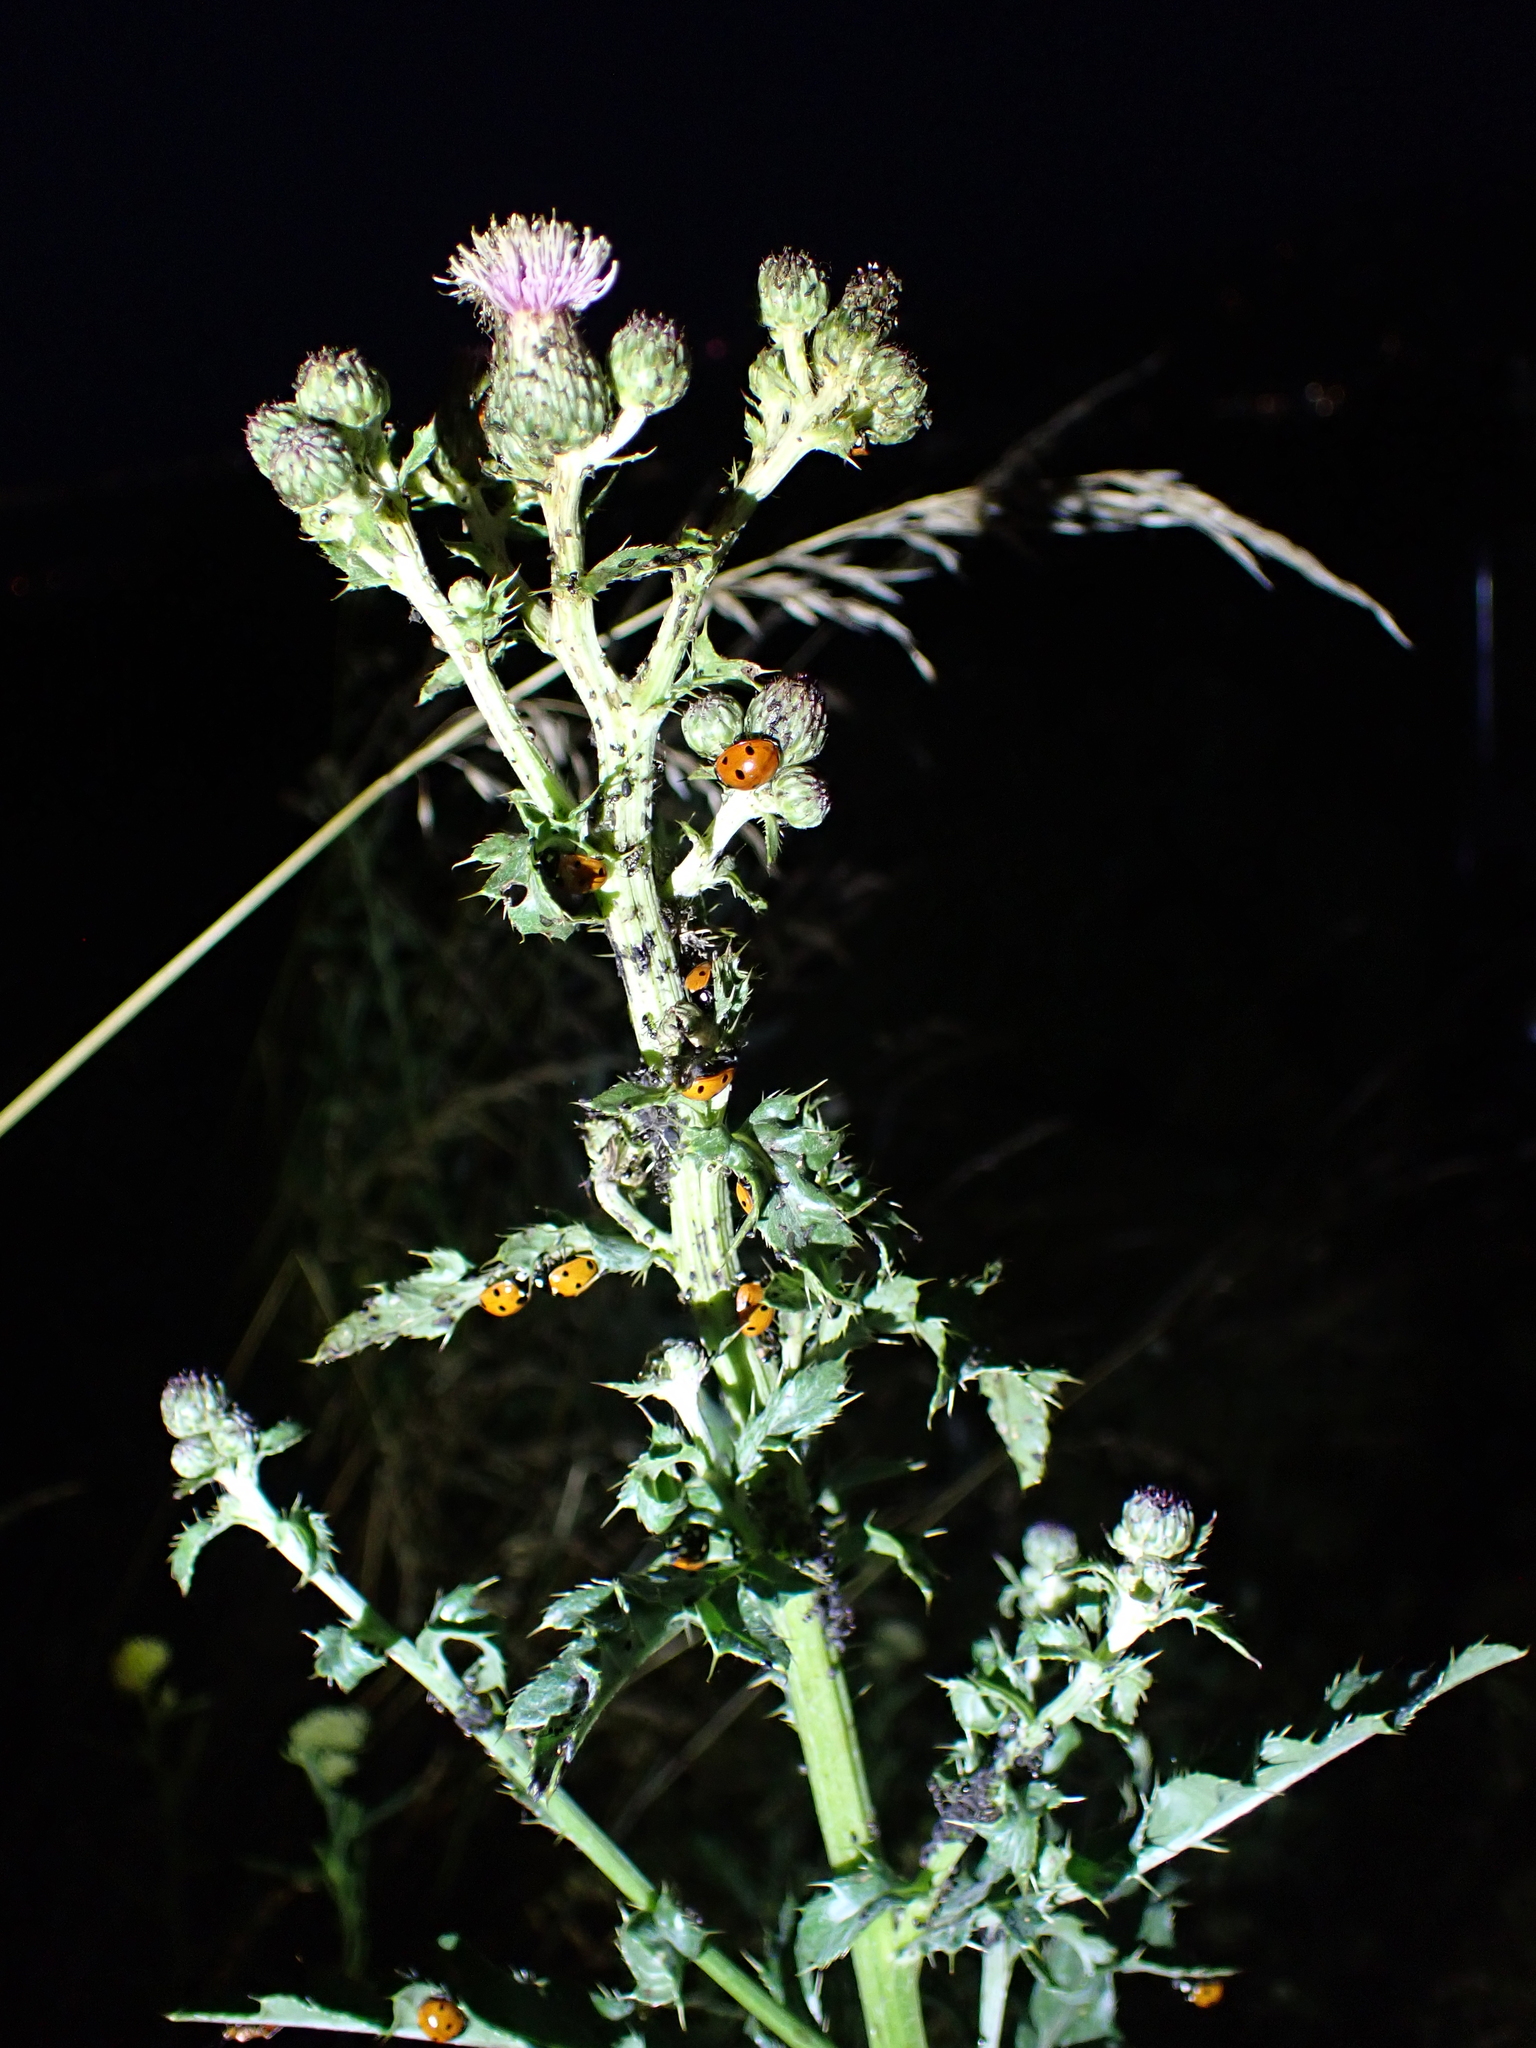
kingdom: Animalia
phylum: Arthropoda
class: Insecta
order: Coleoptera
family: Coccinellidae
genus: Coccinella
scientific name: Coccinella septempunctata
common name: Sevenspotted lady beetle
